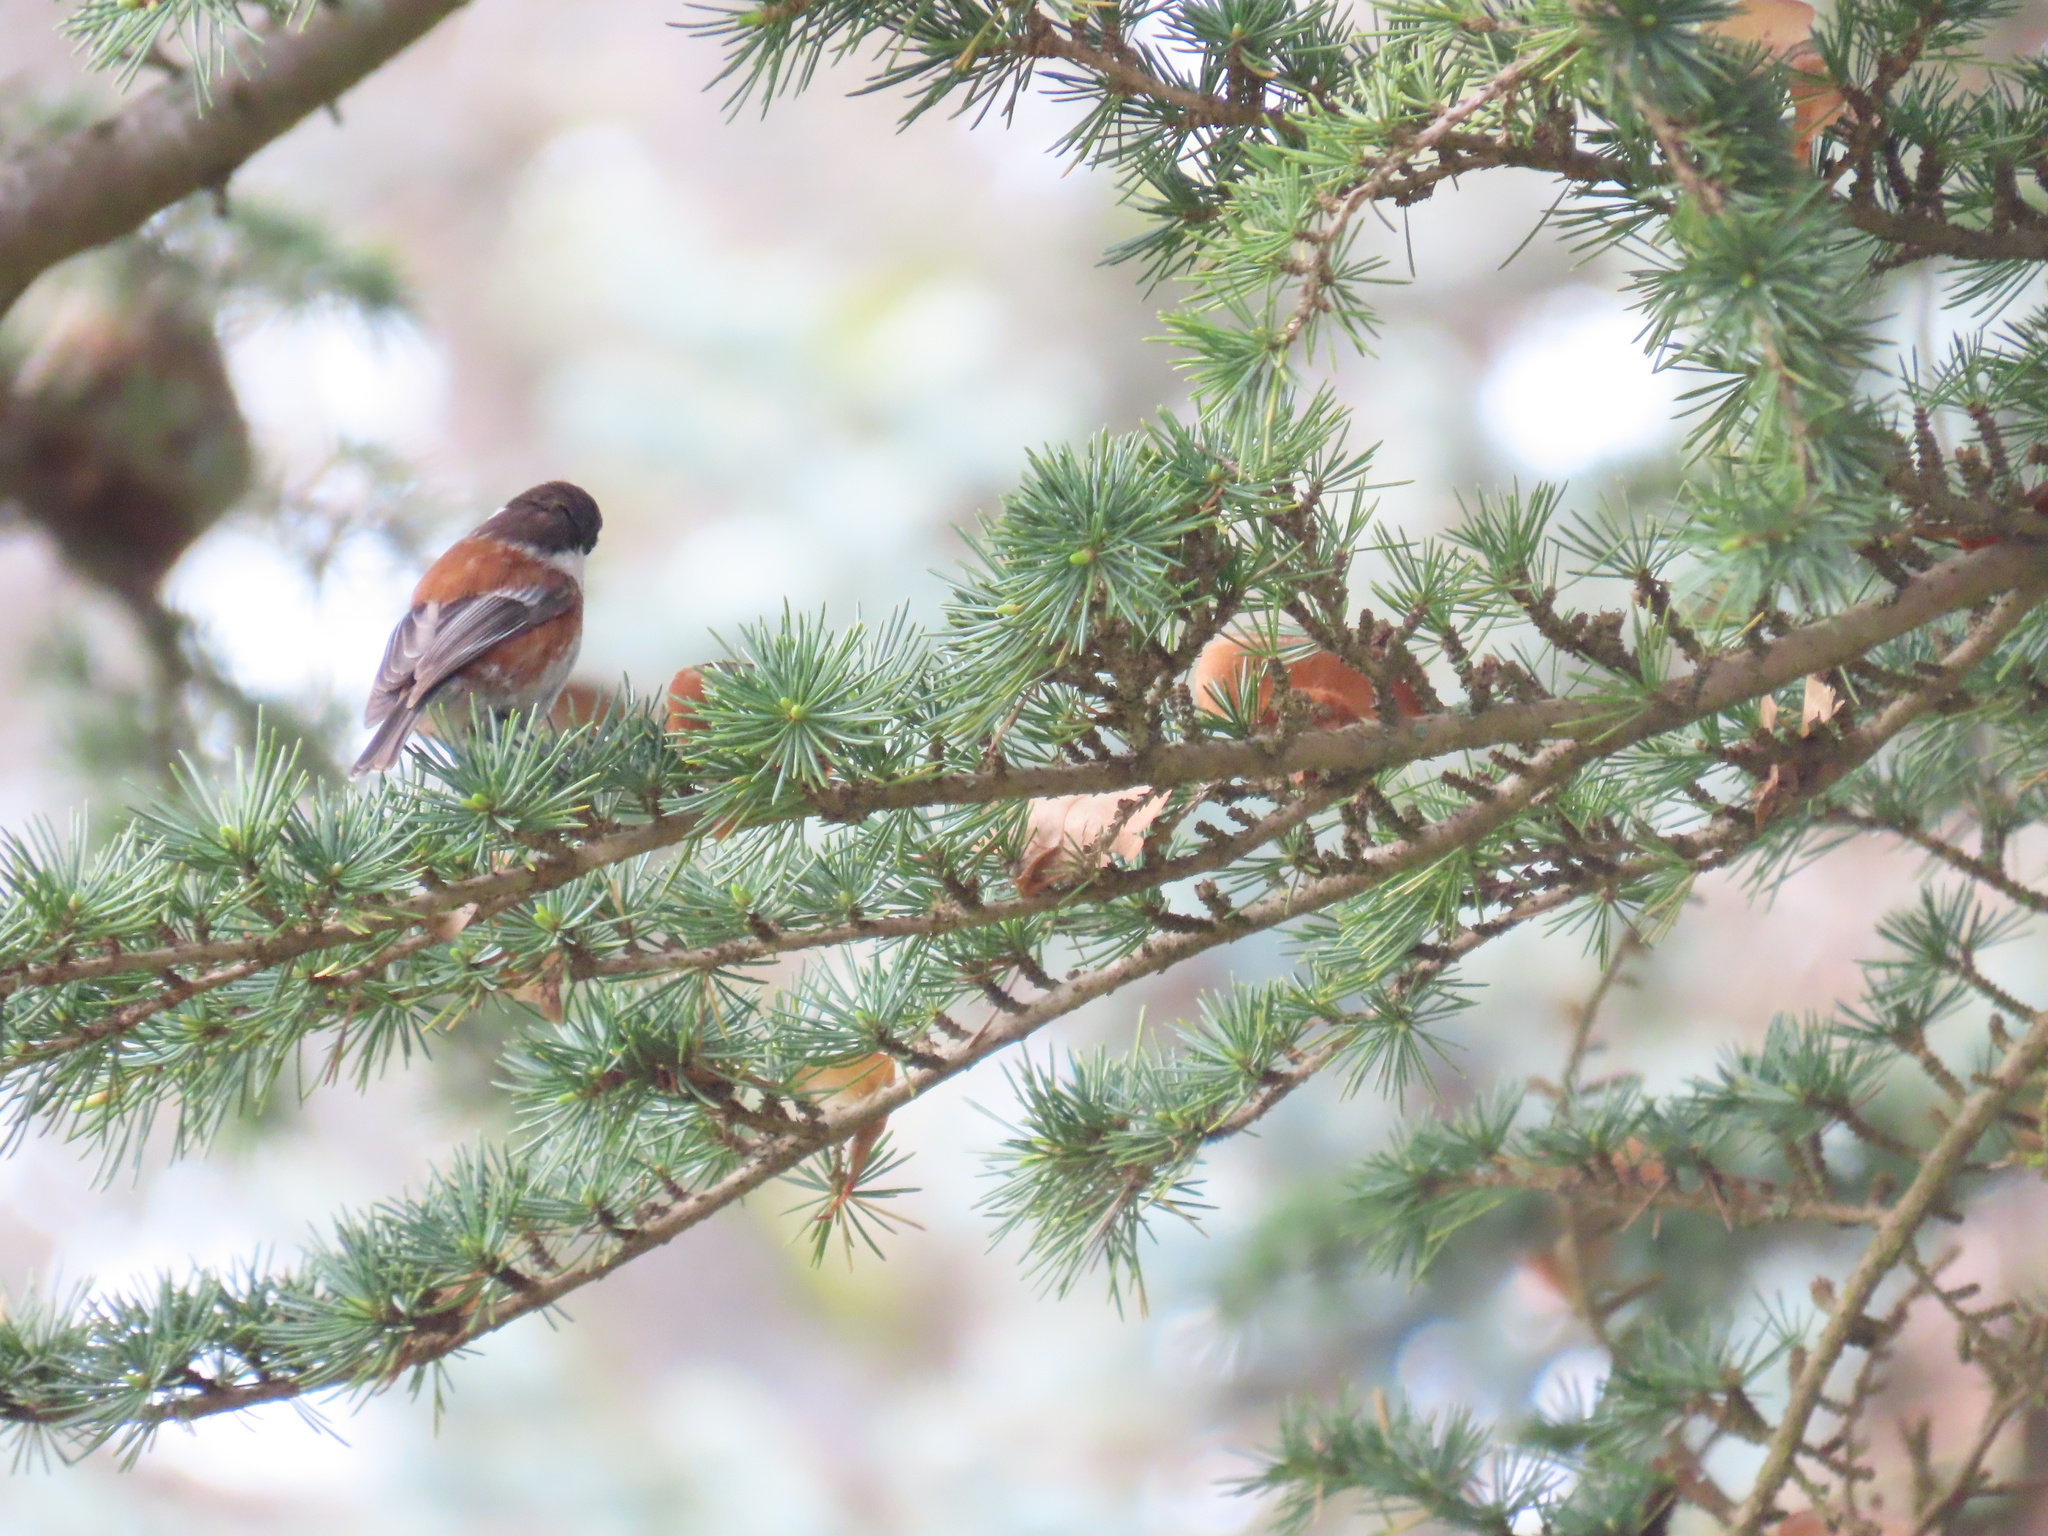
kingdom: Animalia
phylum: Chordata
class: Aves
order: Passeriformes
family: Paridae
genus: Poecile
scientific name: Poecile rufescens
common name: Chestnut-backed chickadee
